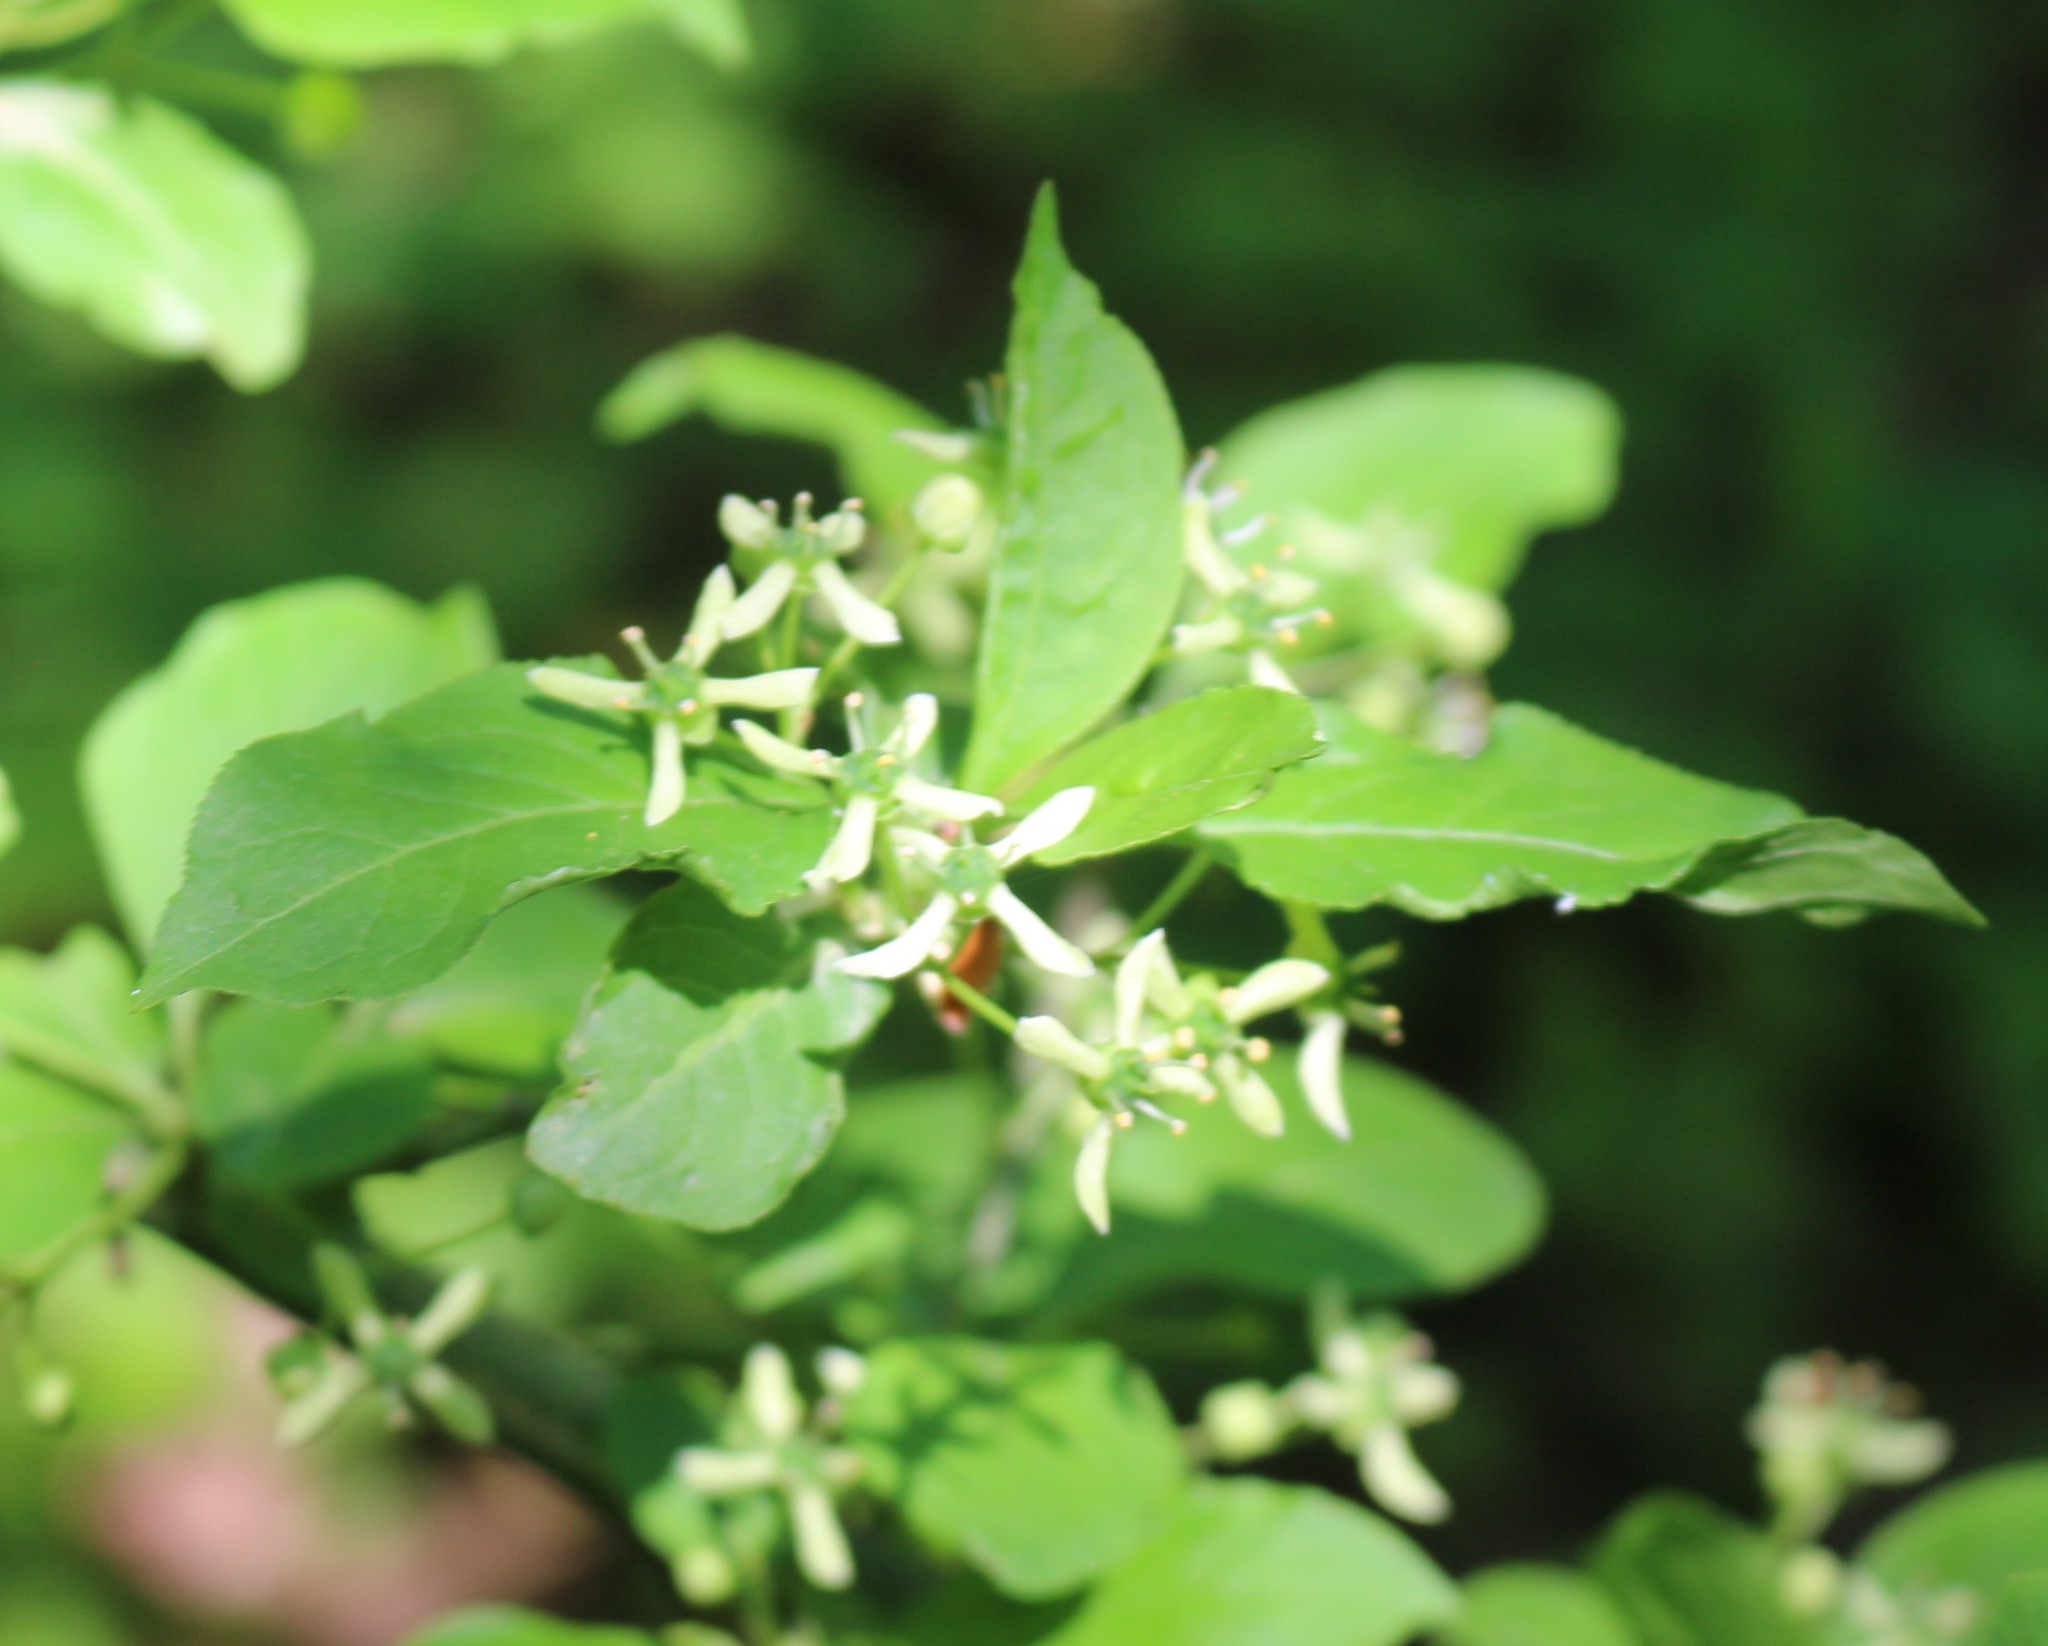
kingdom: Plantae
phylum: Tracheophyta
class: Magnoliopsida
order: Celastrales
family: Celastraceae
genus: Euonymus
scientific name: Euonymus europaeus
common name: Spindle
